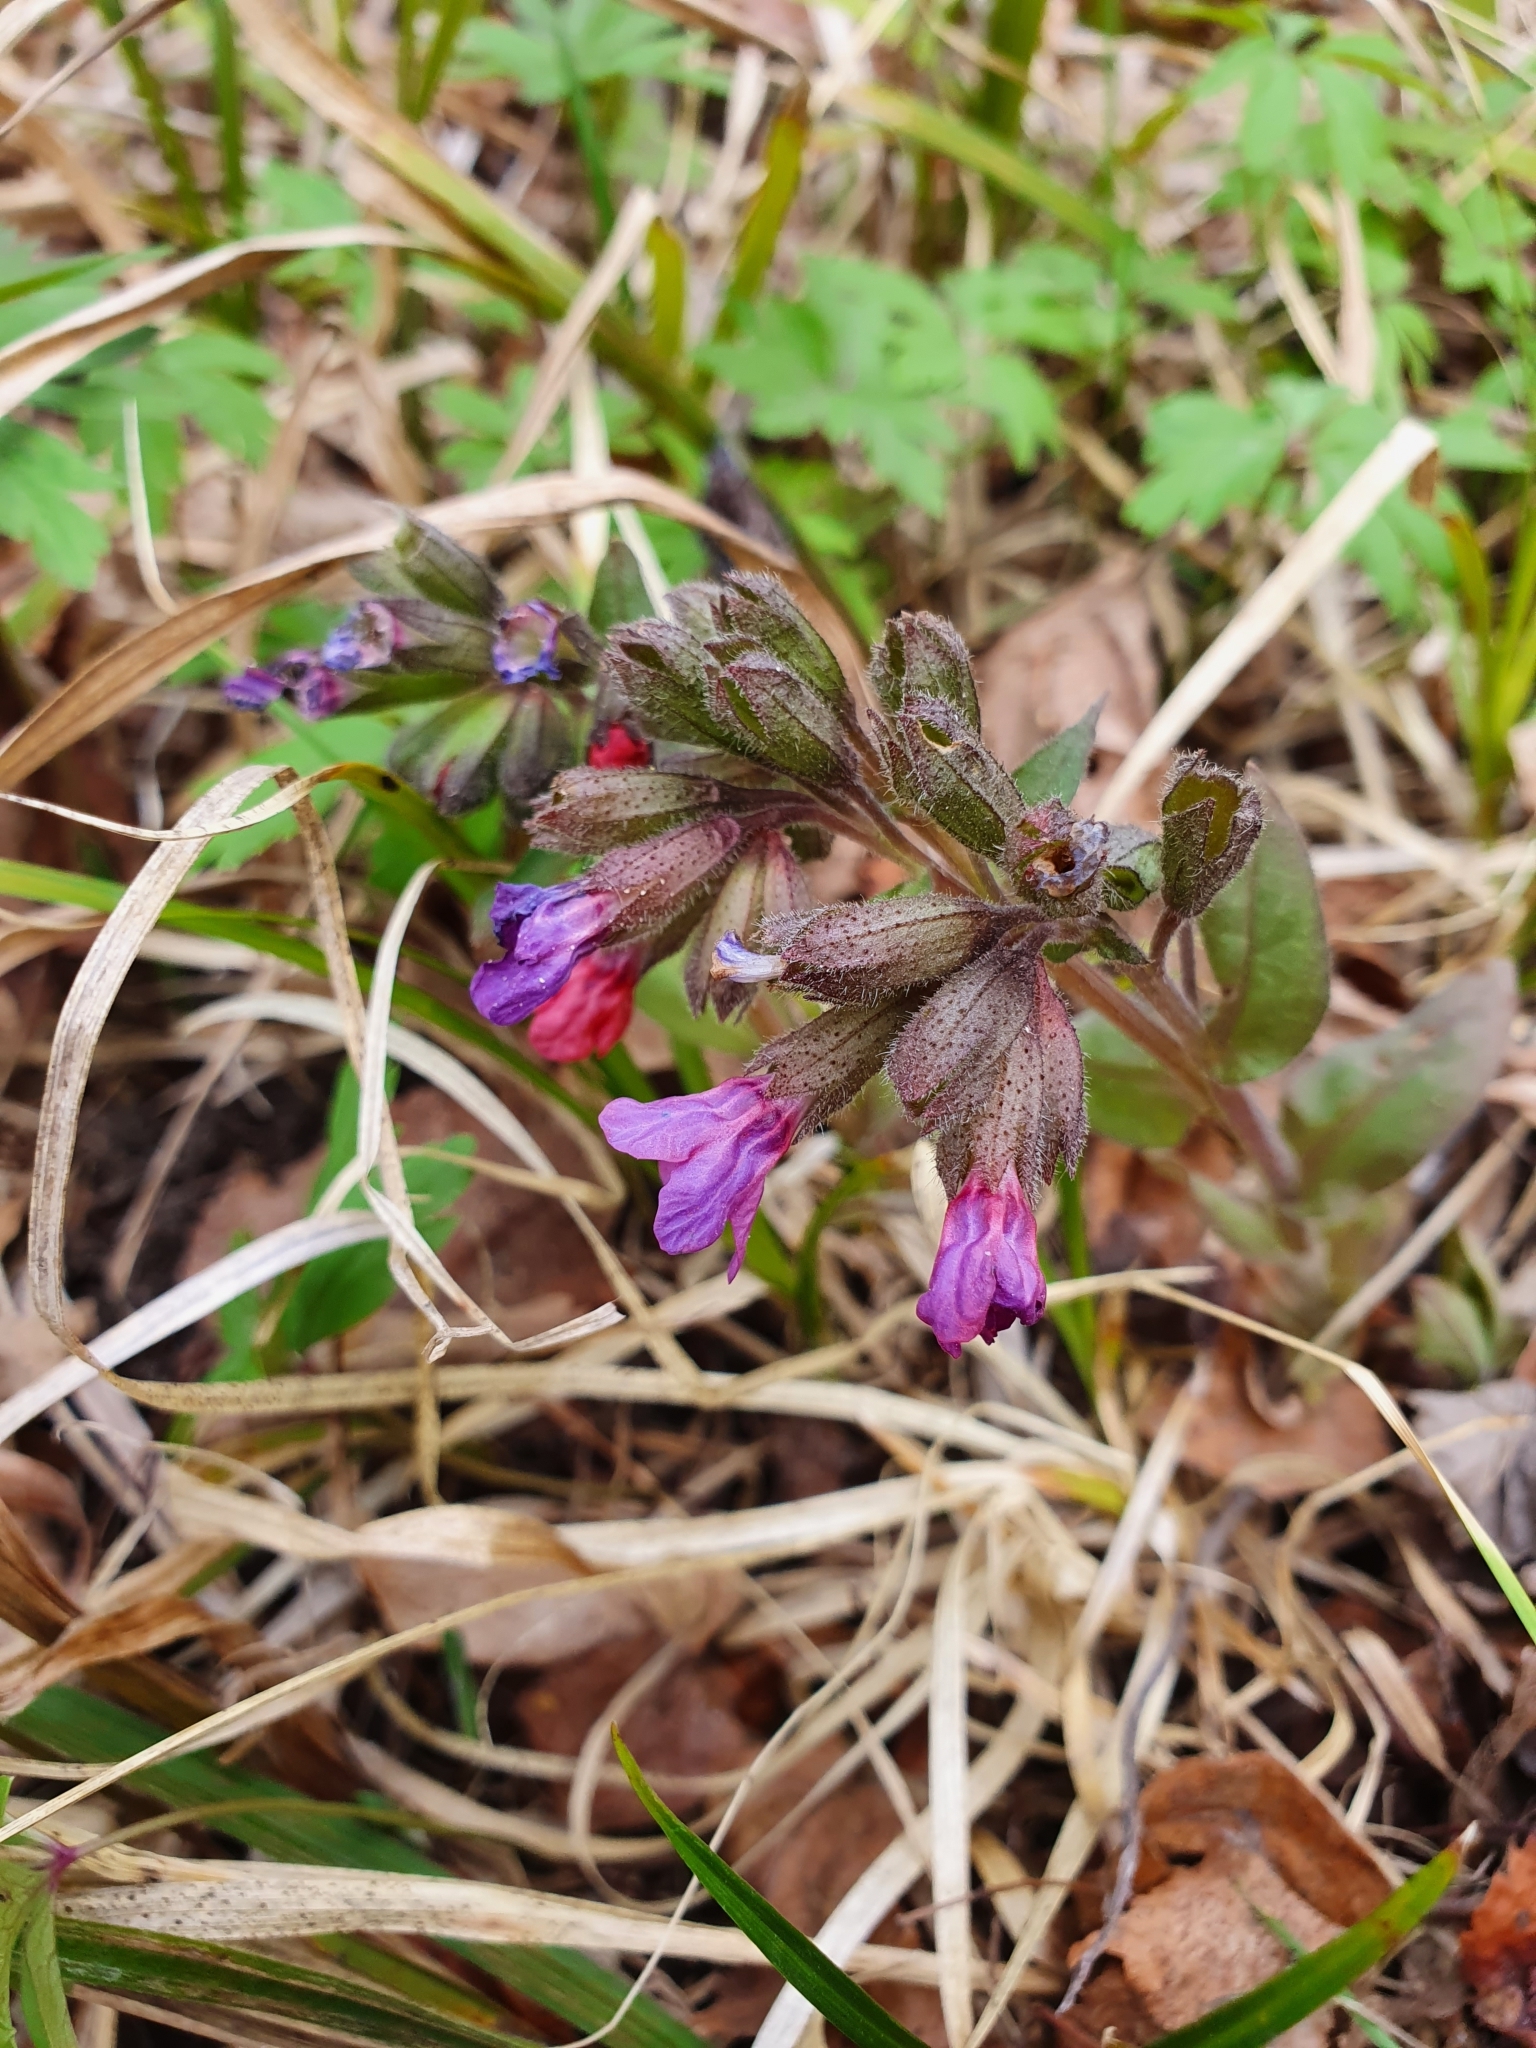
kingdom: Plantae
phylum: Tracheophyta
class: Magnoliopsida
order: Boraginales
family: Boraginaceae
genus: Pulmonaria
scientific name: Pulmonaria obscura
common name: Suffolk lungwort
